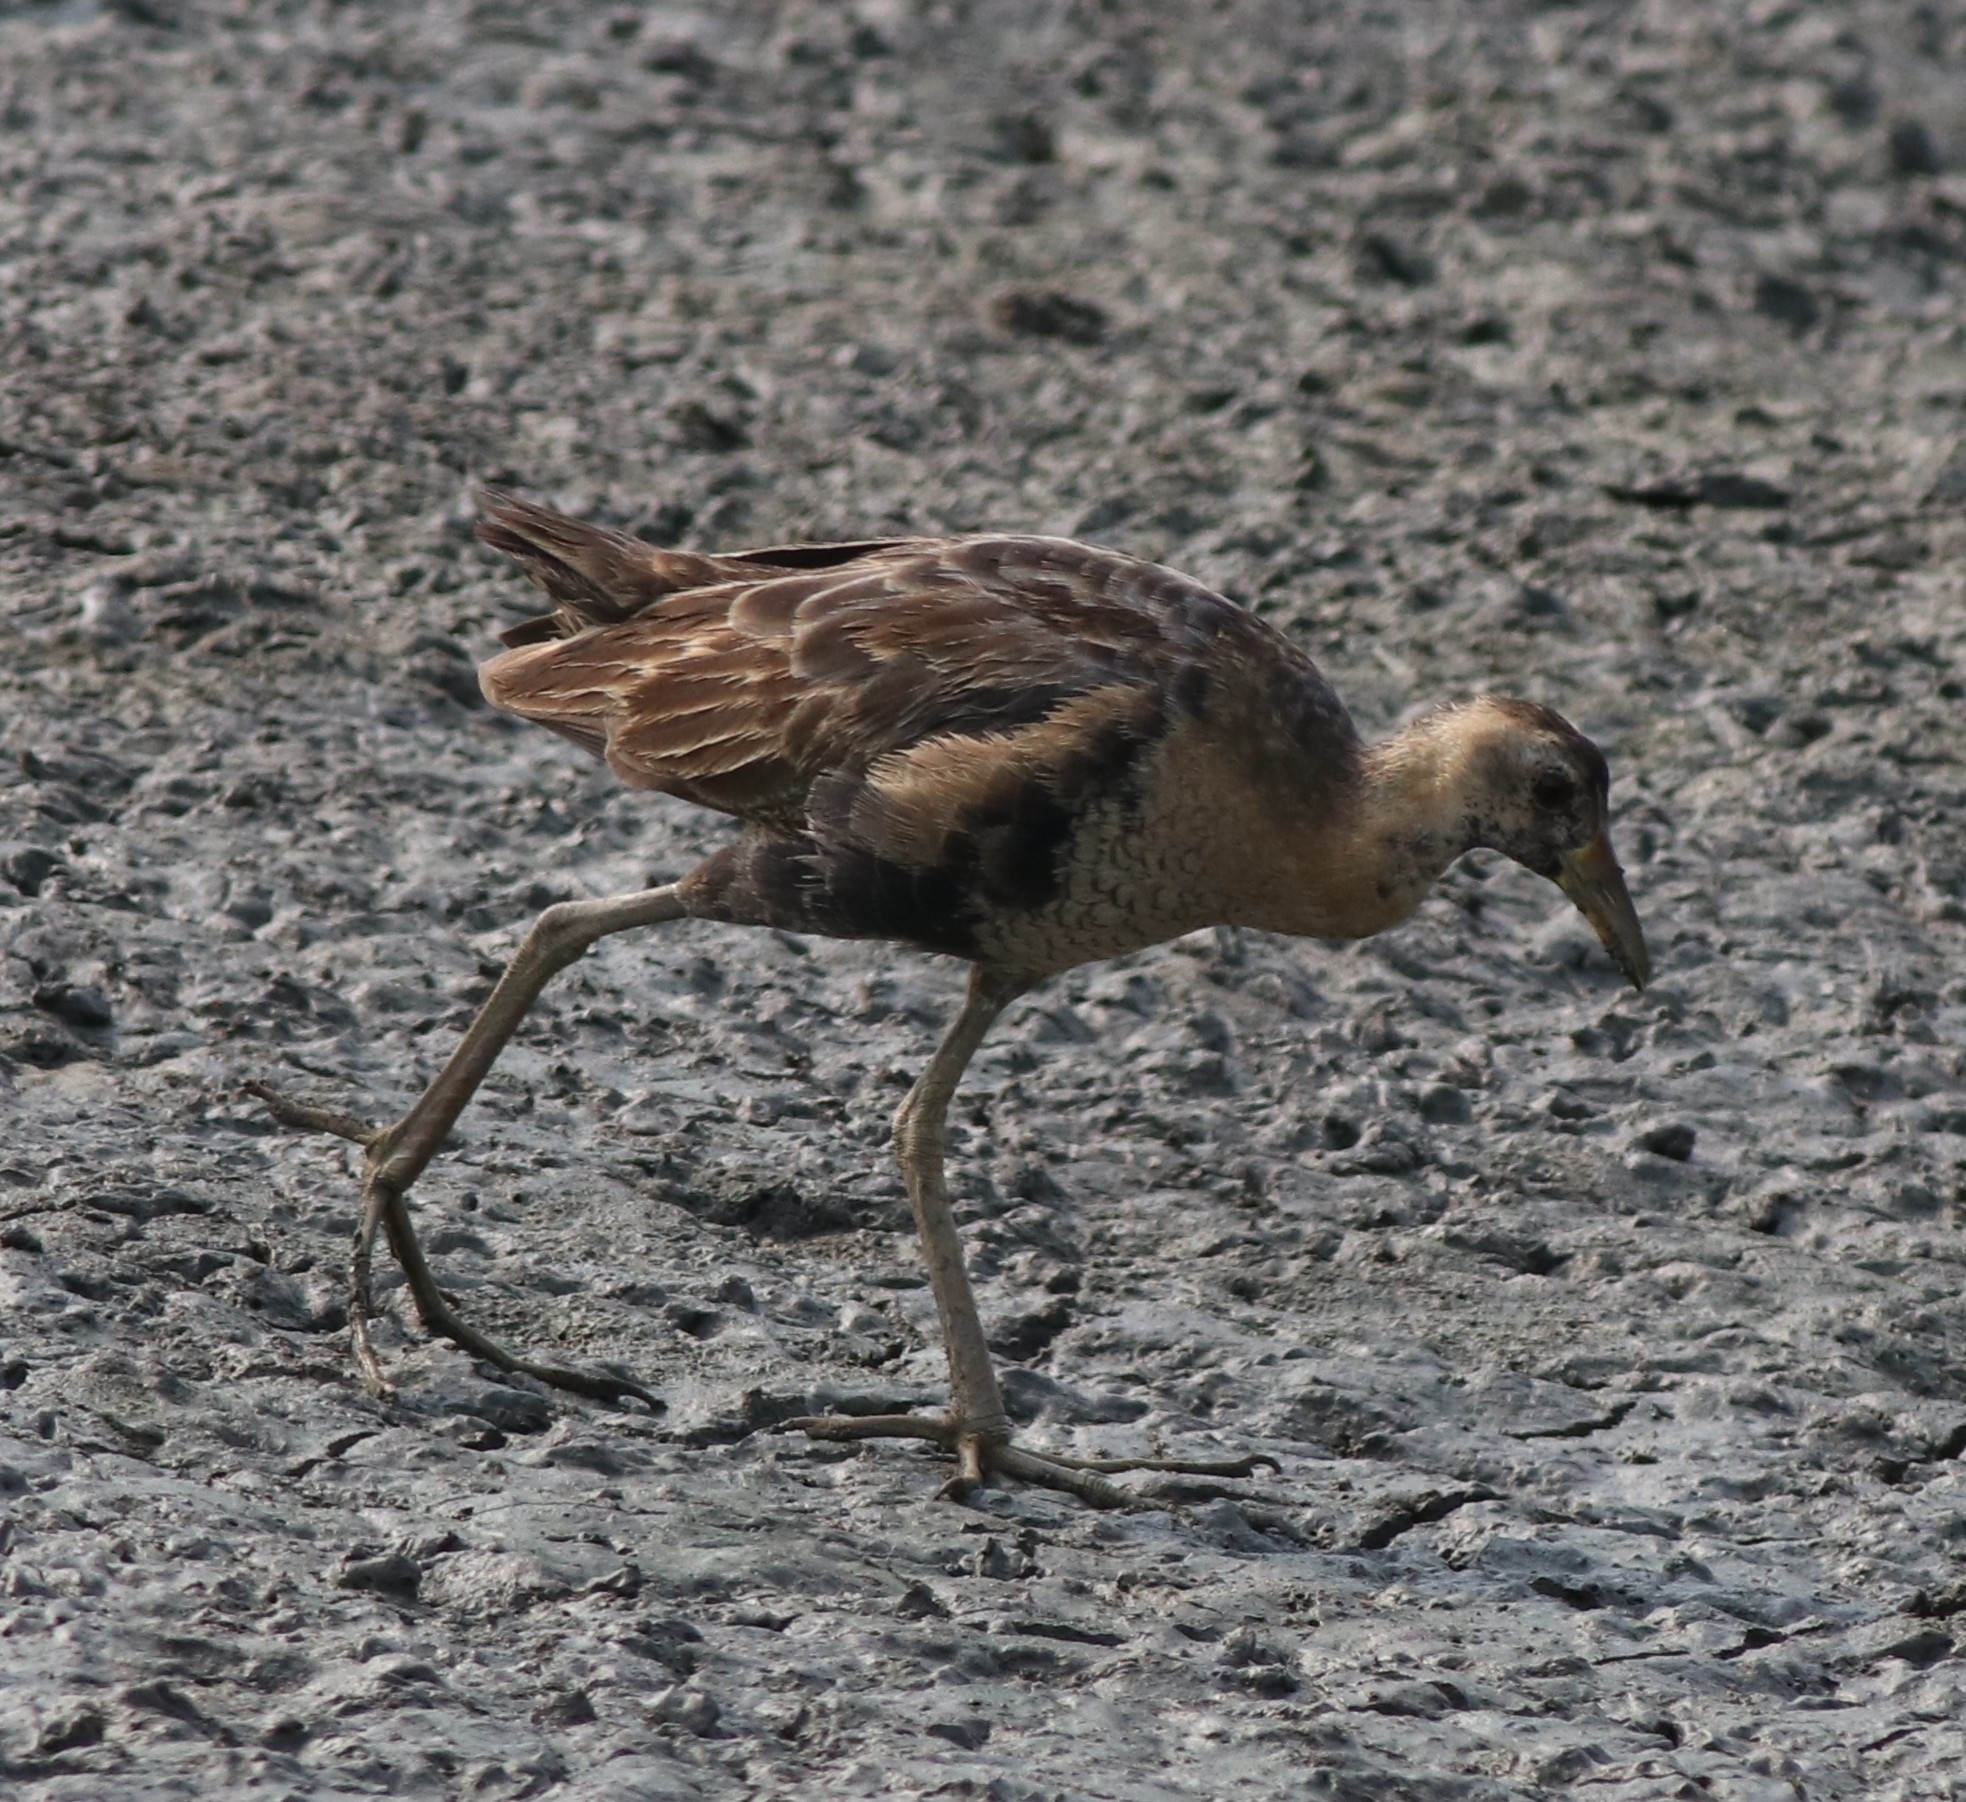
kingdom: Animalia
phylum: Chordata
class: Aves
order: Gruiformes
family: Rallidae
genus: Gallicrex
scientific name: Gallicrex cinerea
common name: Watercock
